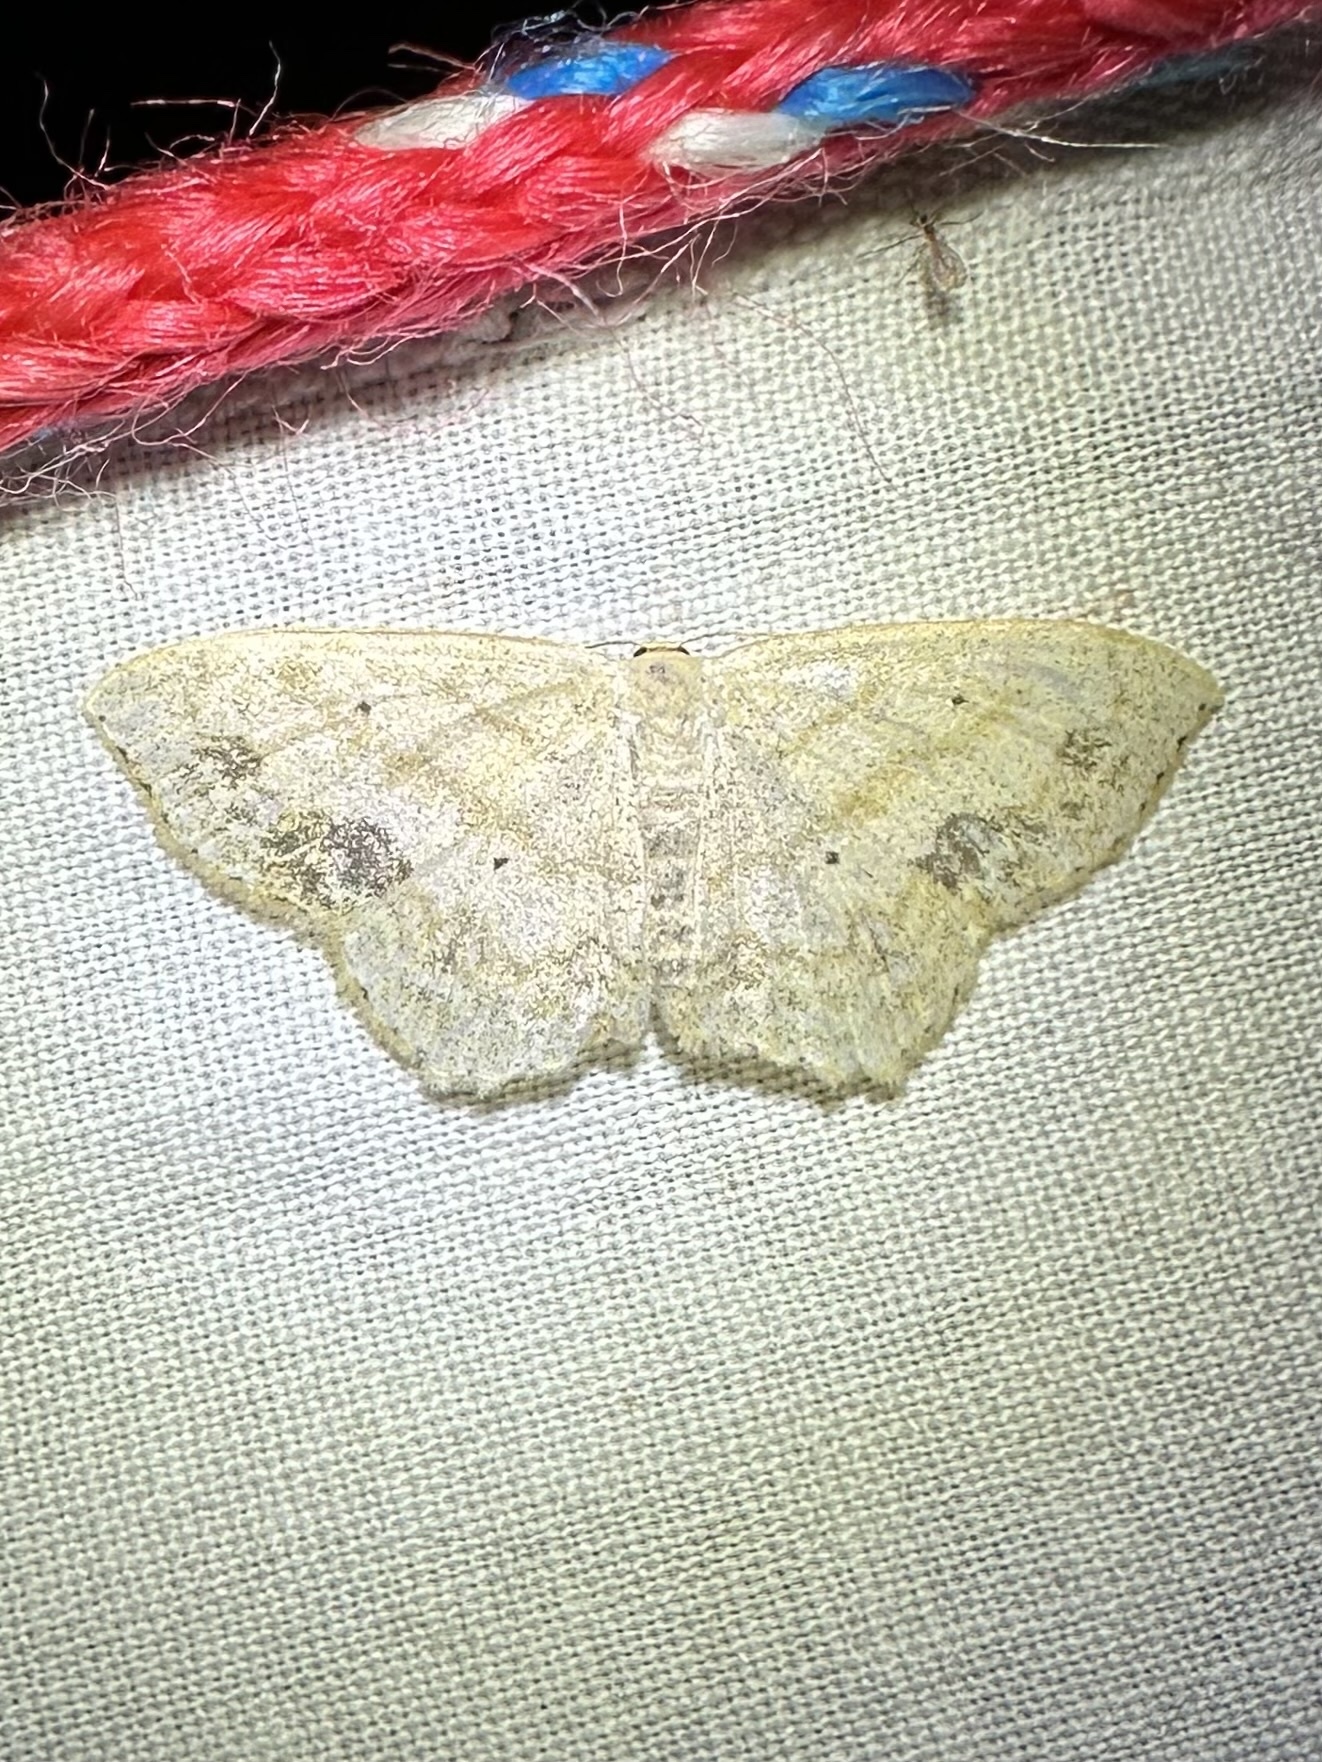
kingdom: Animalia
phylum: Arthropoda
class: Insecta
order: Lepidoptera
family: Geometridae
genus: Scopula
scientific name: Scopula limboundata
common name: Large lace border
